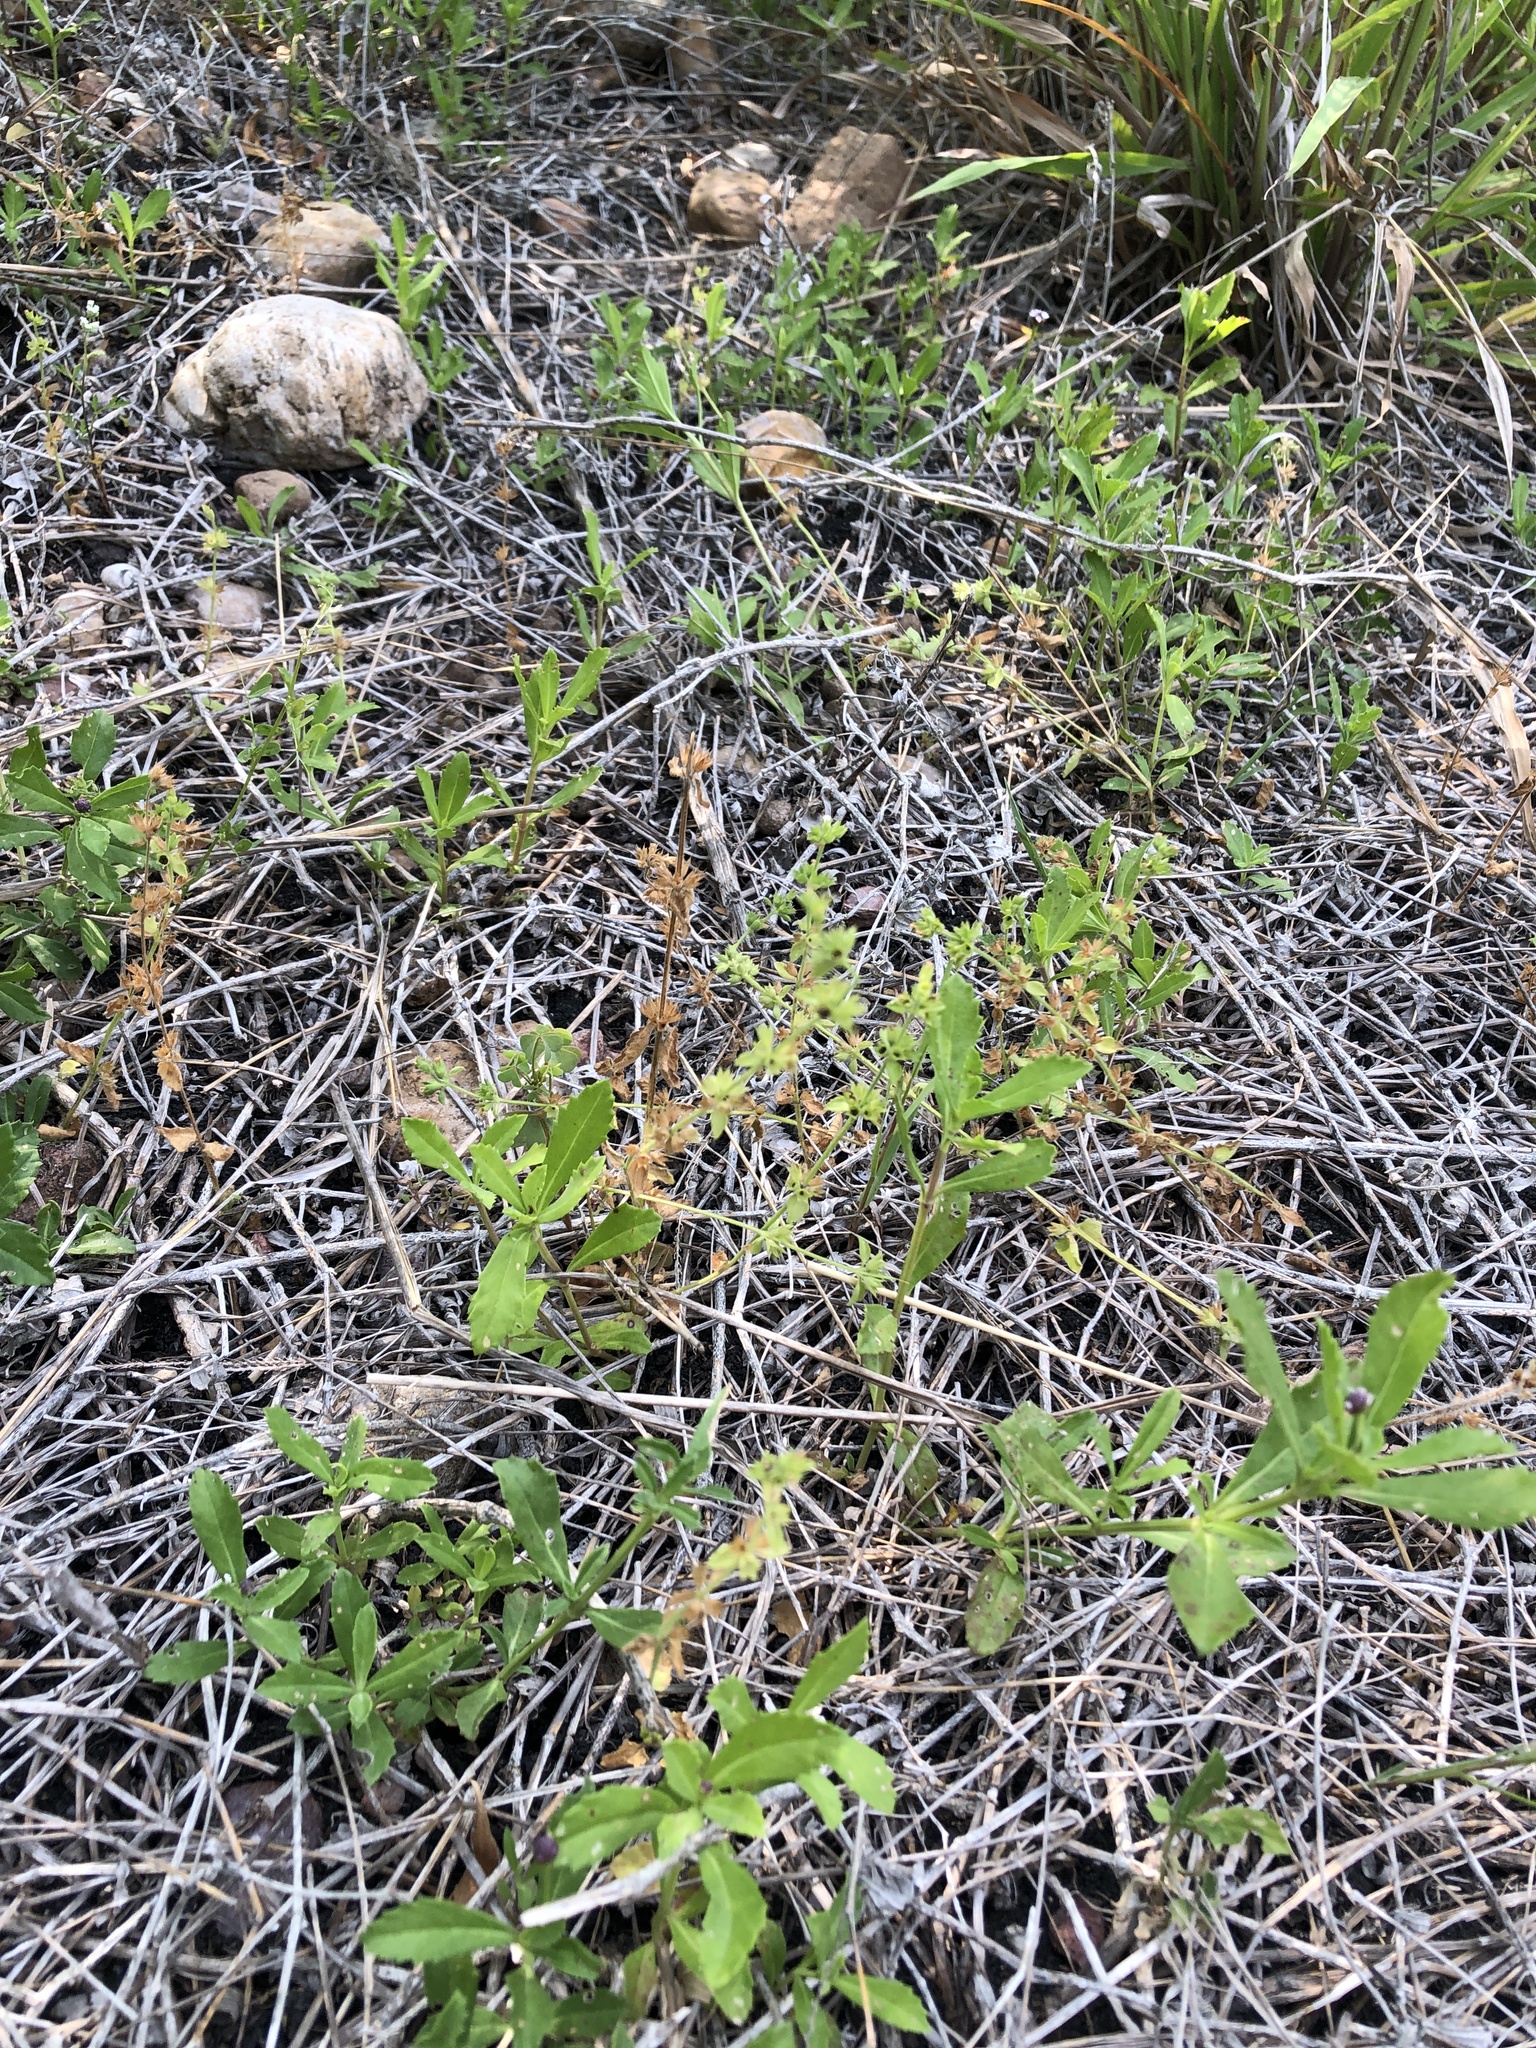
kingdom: Plantae
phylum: Tracheophyta
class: Magnoliopsida
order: Lamiales
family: Lamiaceae
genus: Stachys
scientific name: Stachys
